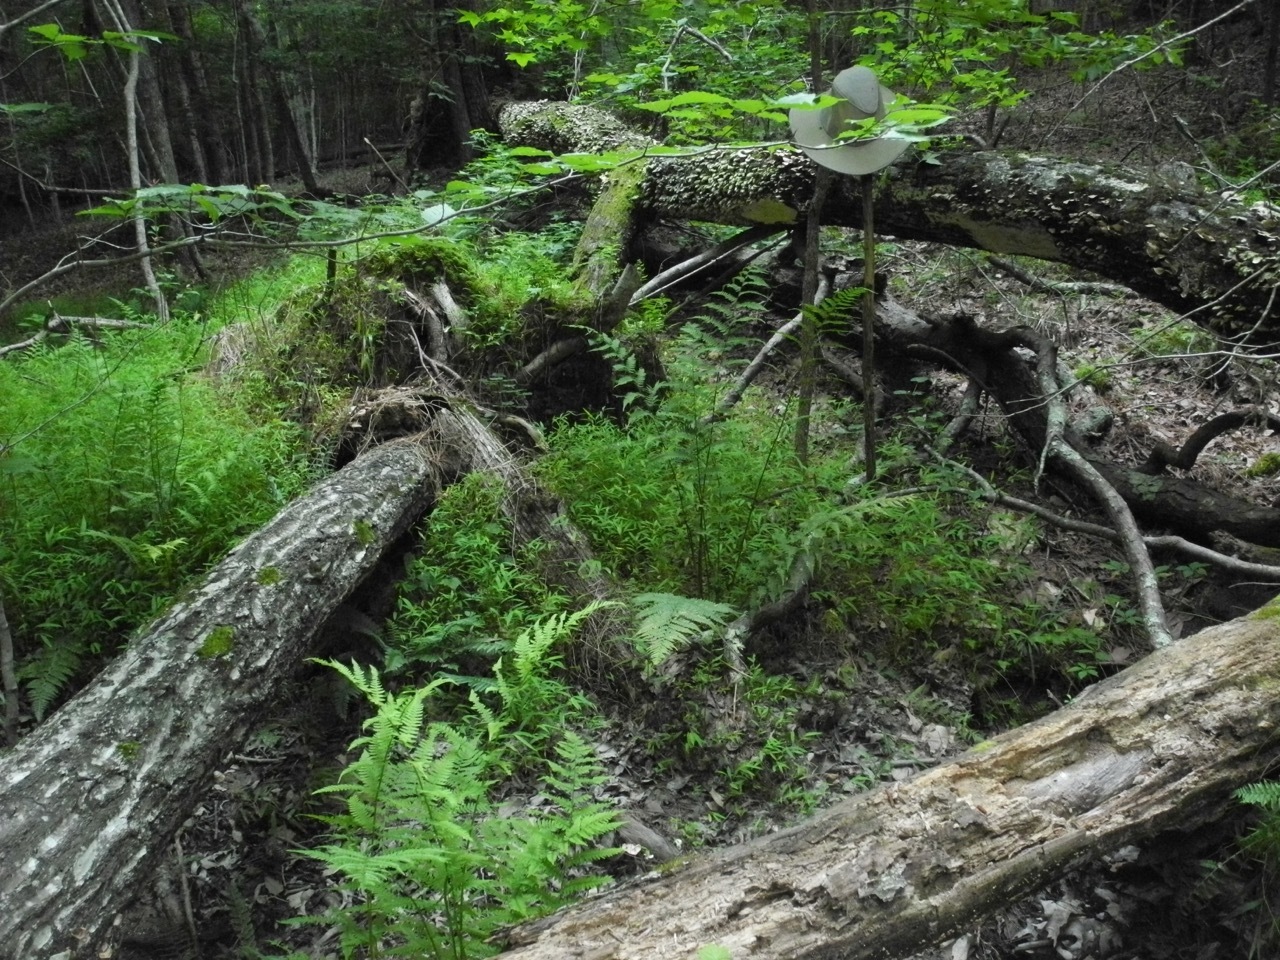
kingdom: Plantae
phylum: Tracheophyta
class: Polypodiopsida
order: Polypodiales
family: Athyriaceae
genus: Athyrium
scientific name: Athyrium asplenioides
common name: Southern lady fern
